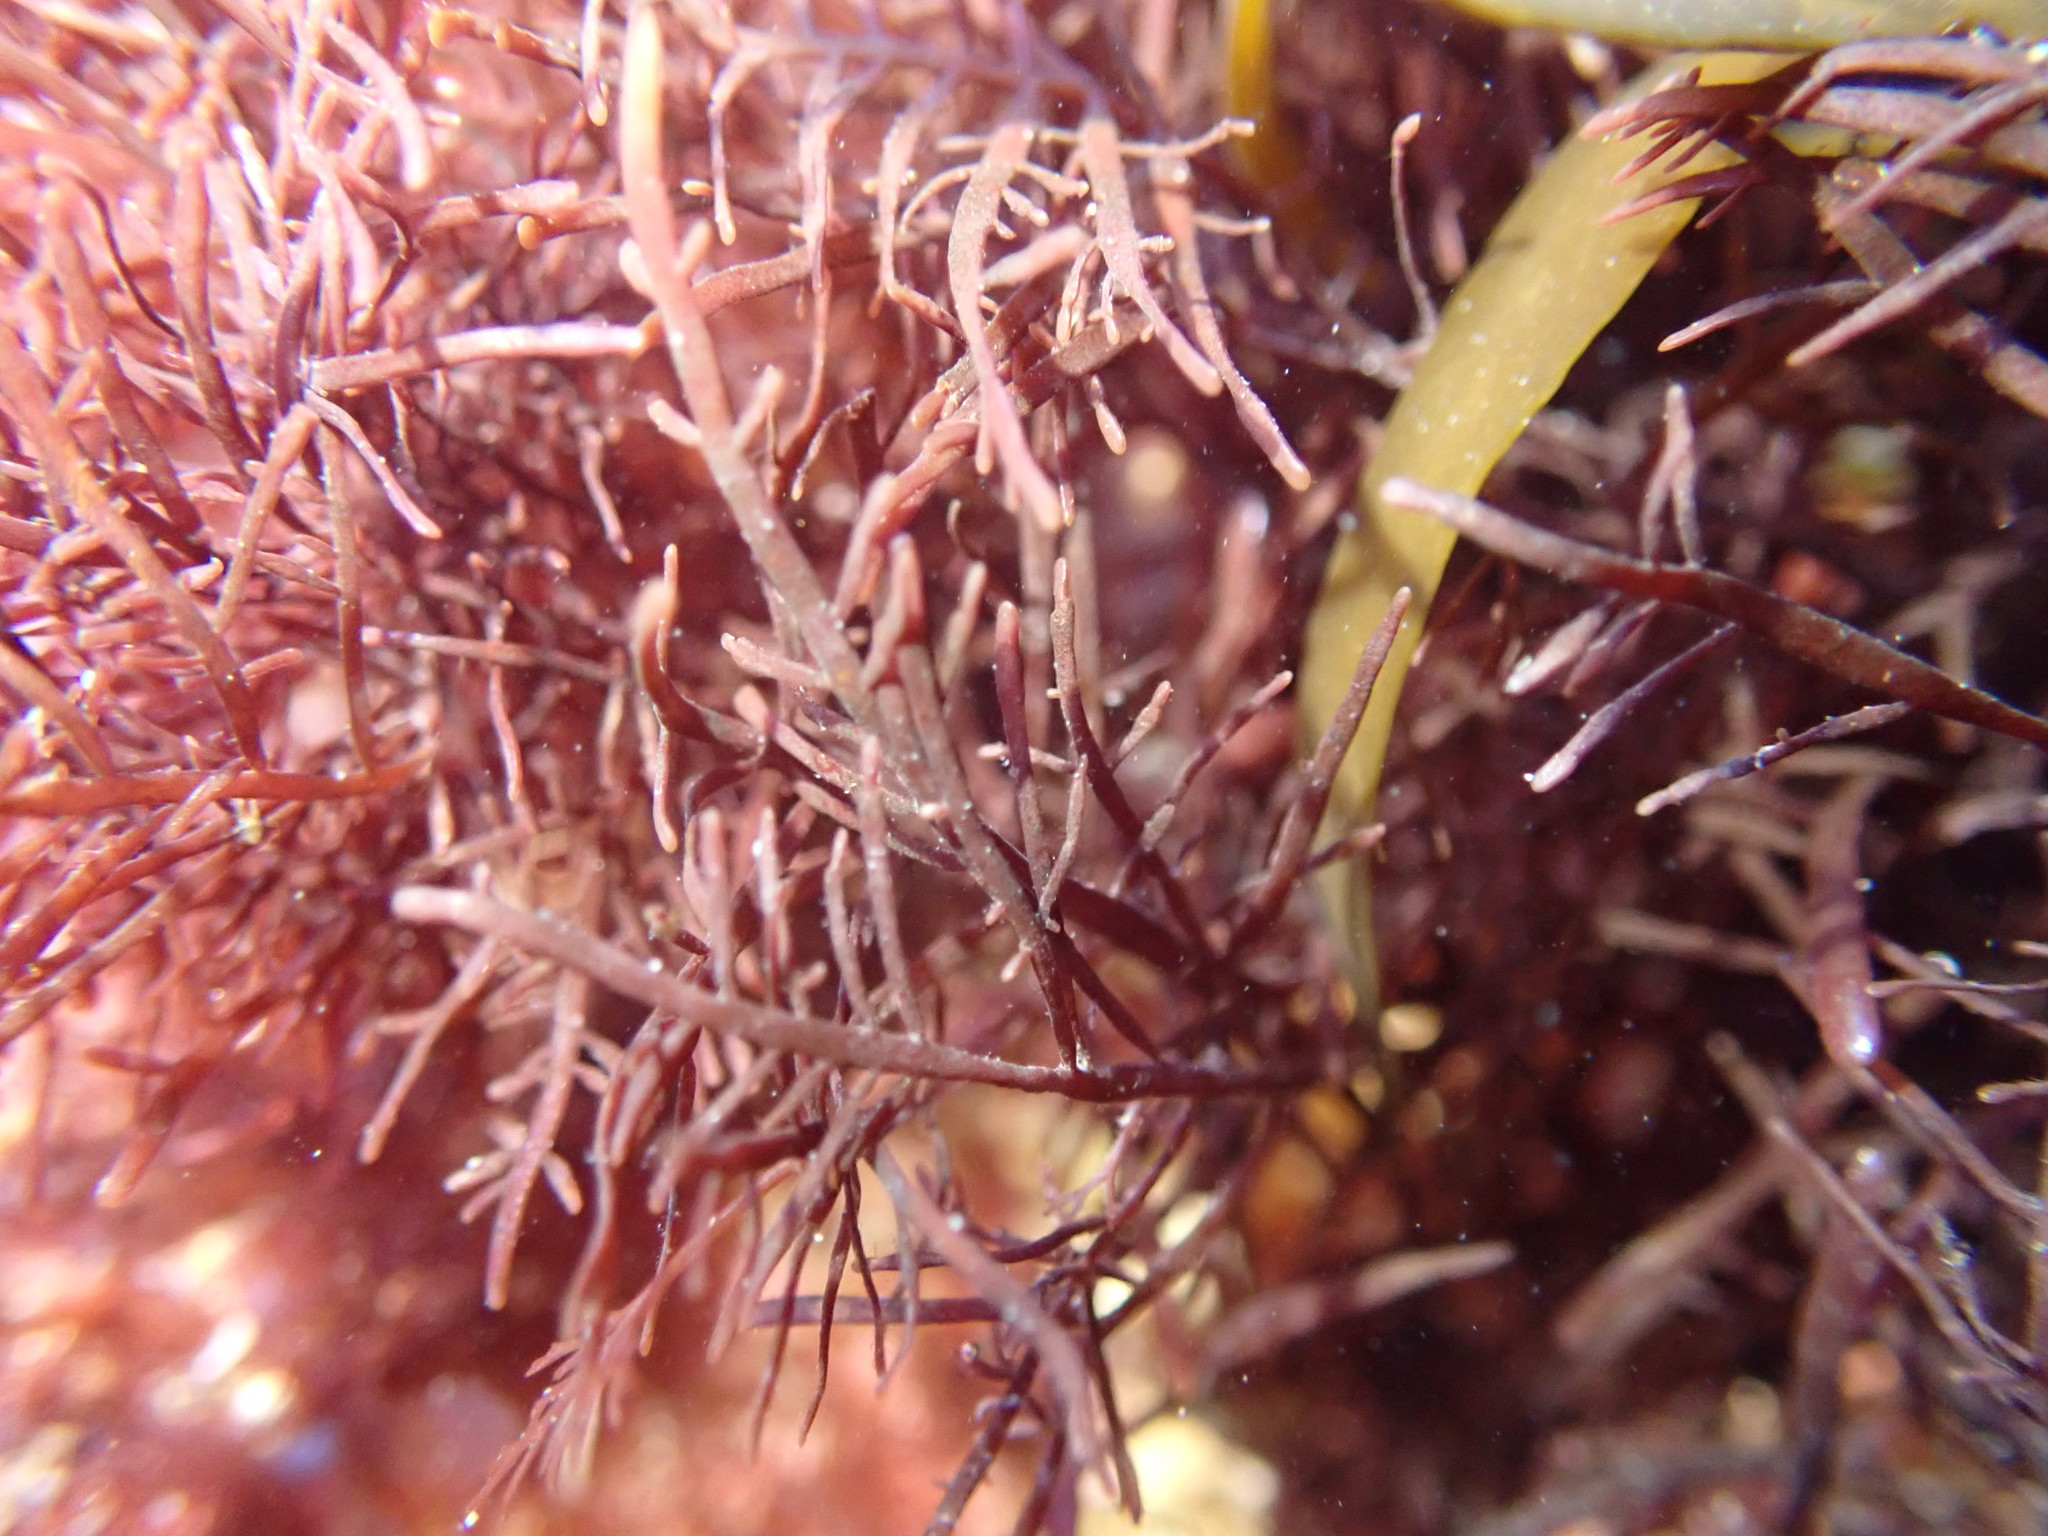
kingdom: Plantae
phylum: Rhodophyta
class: Florideophyceae
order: Gelidiales
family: Pterocladiaceae
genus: Pterocladiella
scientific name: Pterocladiella capillacea
